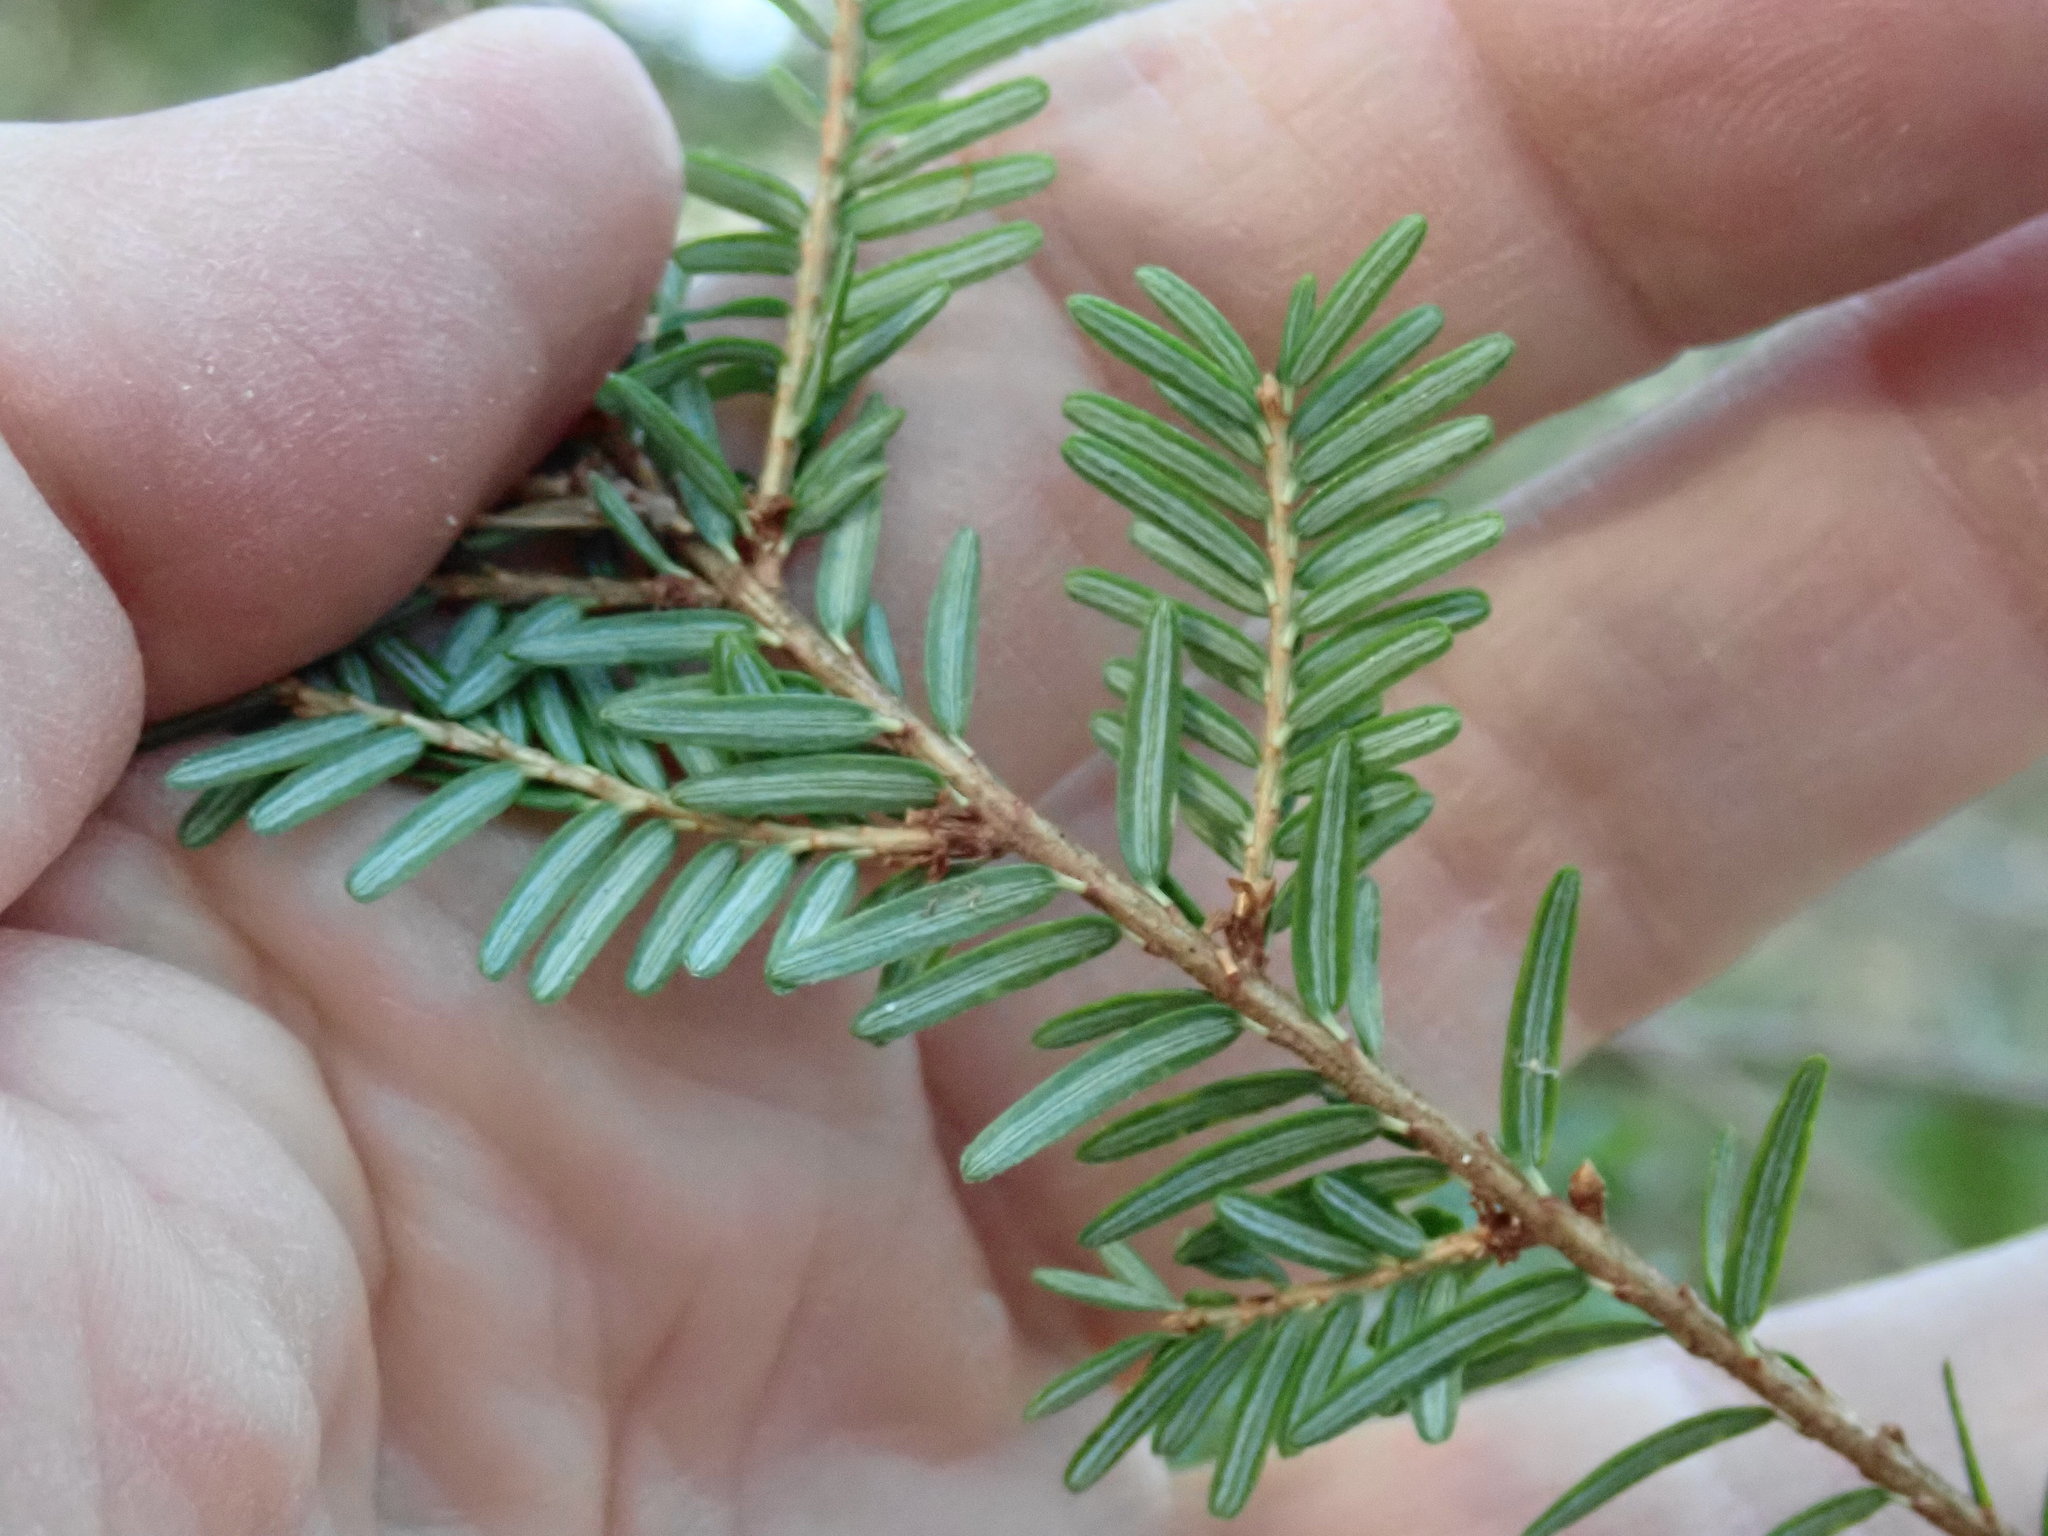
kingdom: Plantae
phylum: Tracheophyta
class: Pinopsida
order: Pinales
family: Pinaceae
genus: Tsuga
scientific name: Tsuga canadensis
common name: Eastern hemlock
